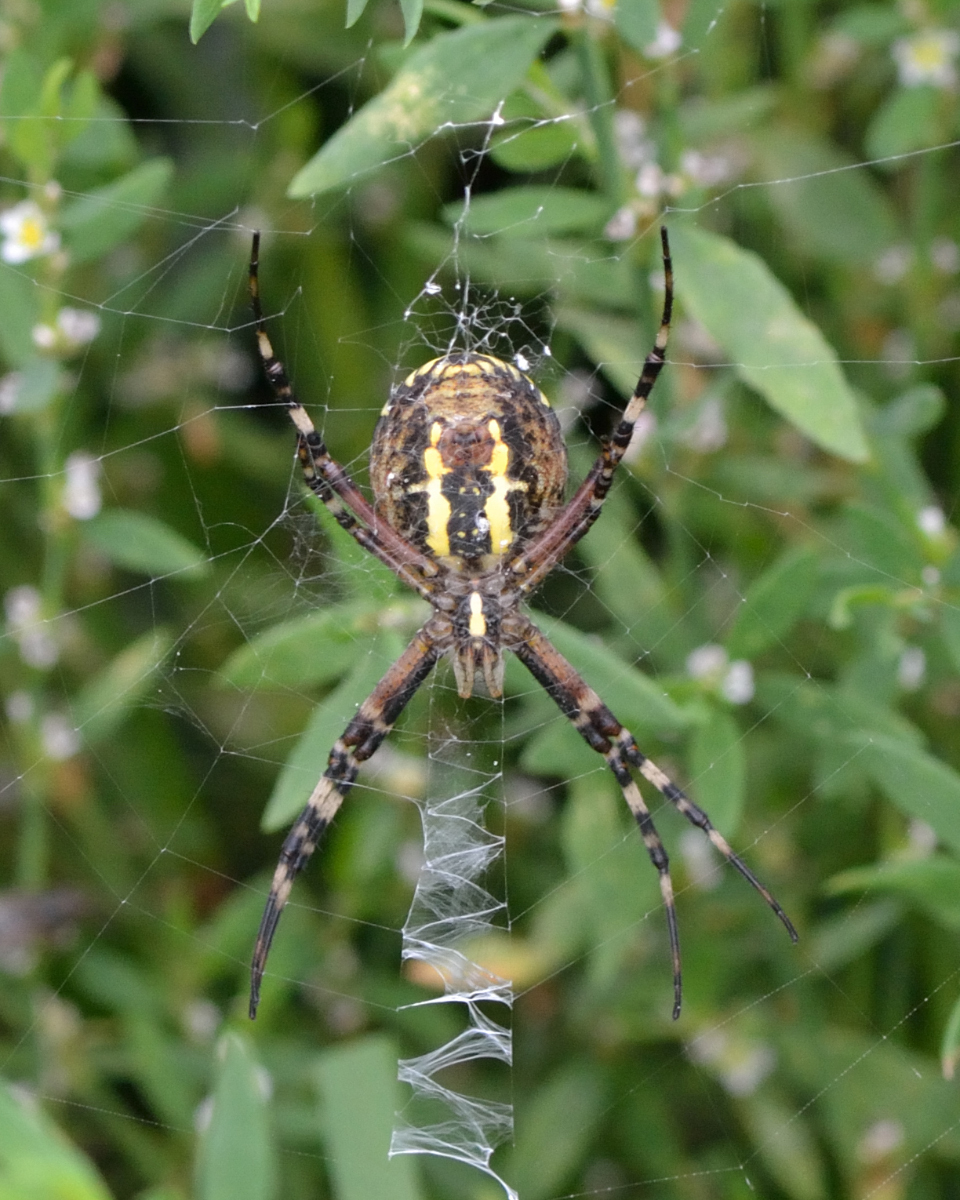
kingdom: Animalia
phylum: Arthropoda
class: Arachnida
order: Araneae
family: Araneidae
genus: Argiope
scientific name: Argiope bruennichi
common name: Wasp spider
